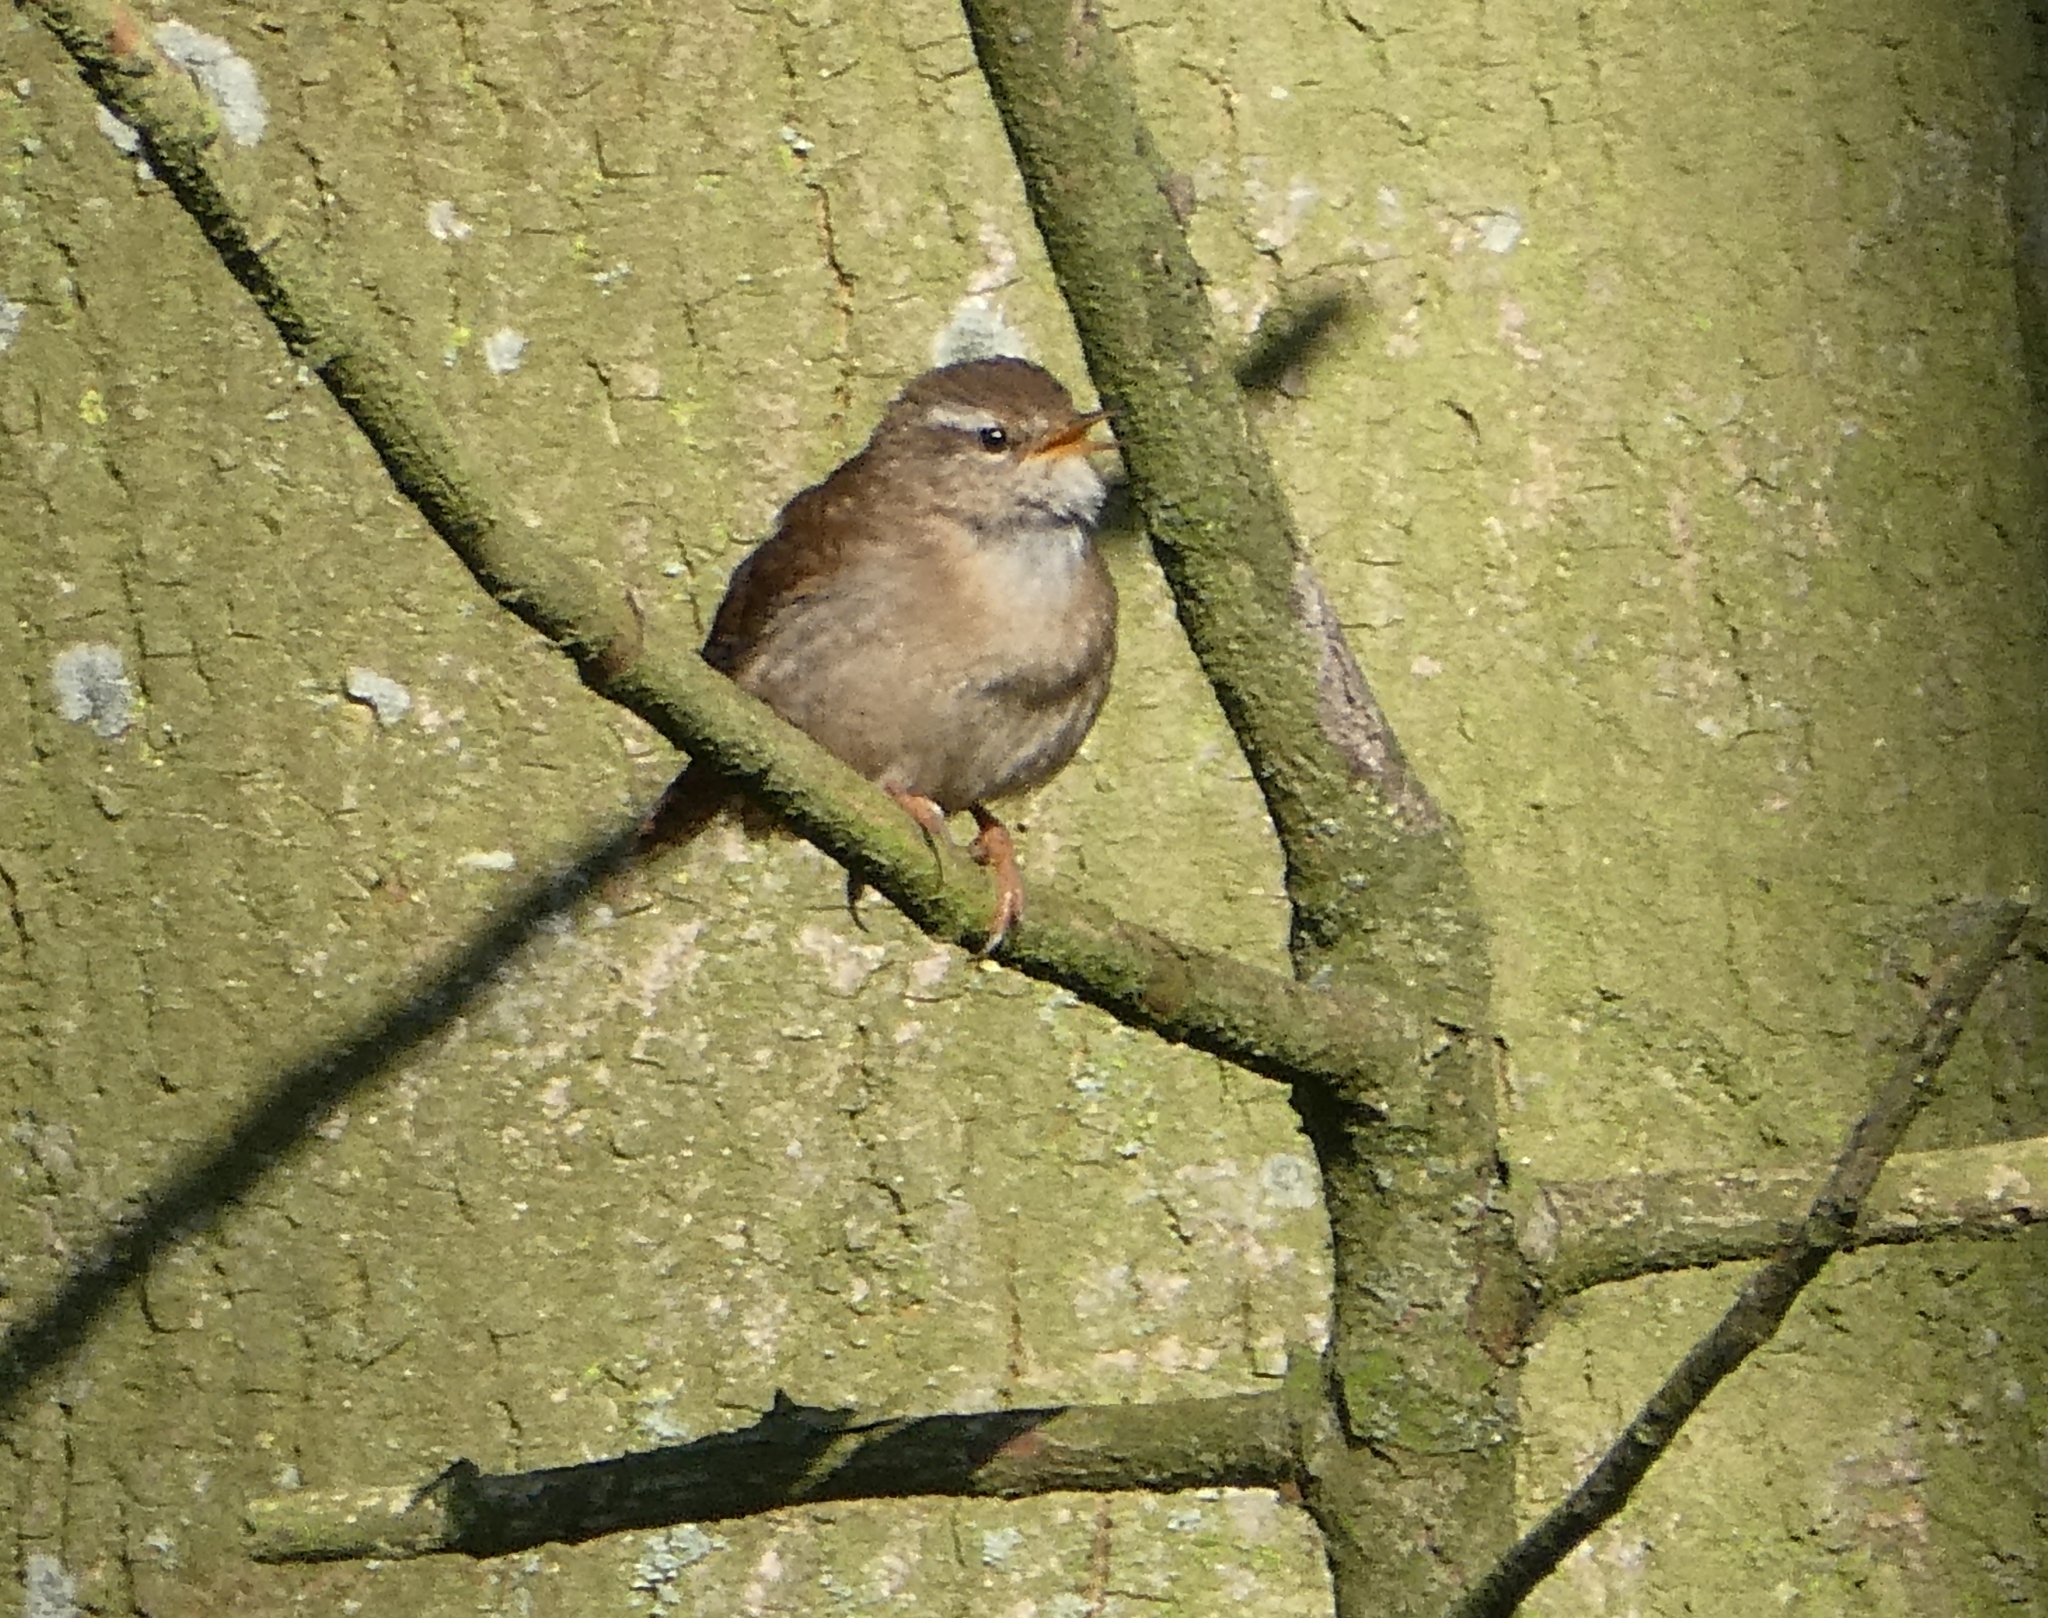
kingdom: Animalia
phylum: Chordata
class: Aves
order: Passeriformes
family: Troglodytidae
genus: Troglodytes
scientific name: Troglodytes troglodytes
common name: Eurasian wren
